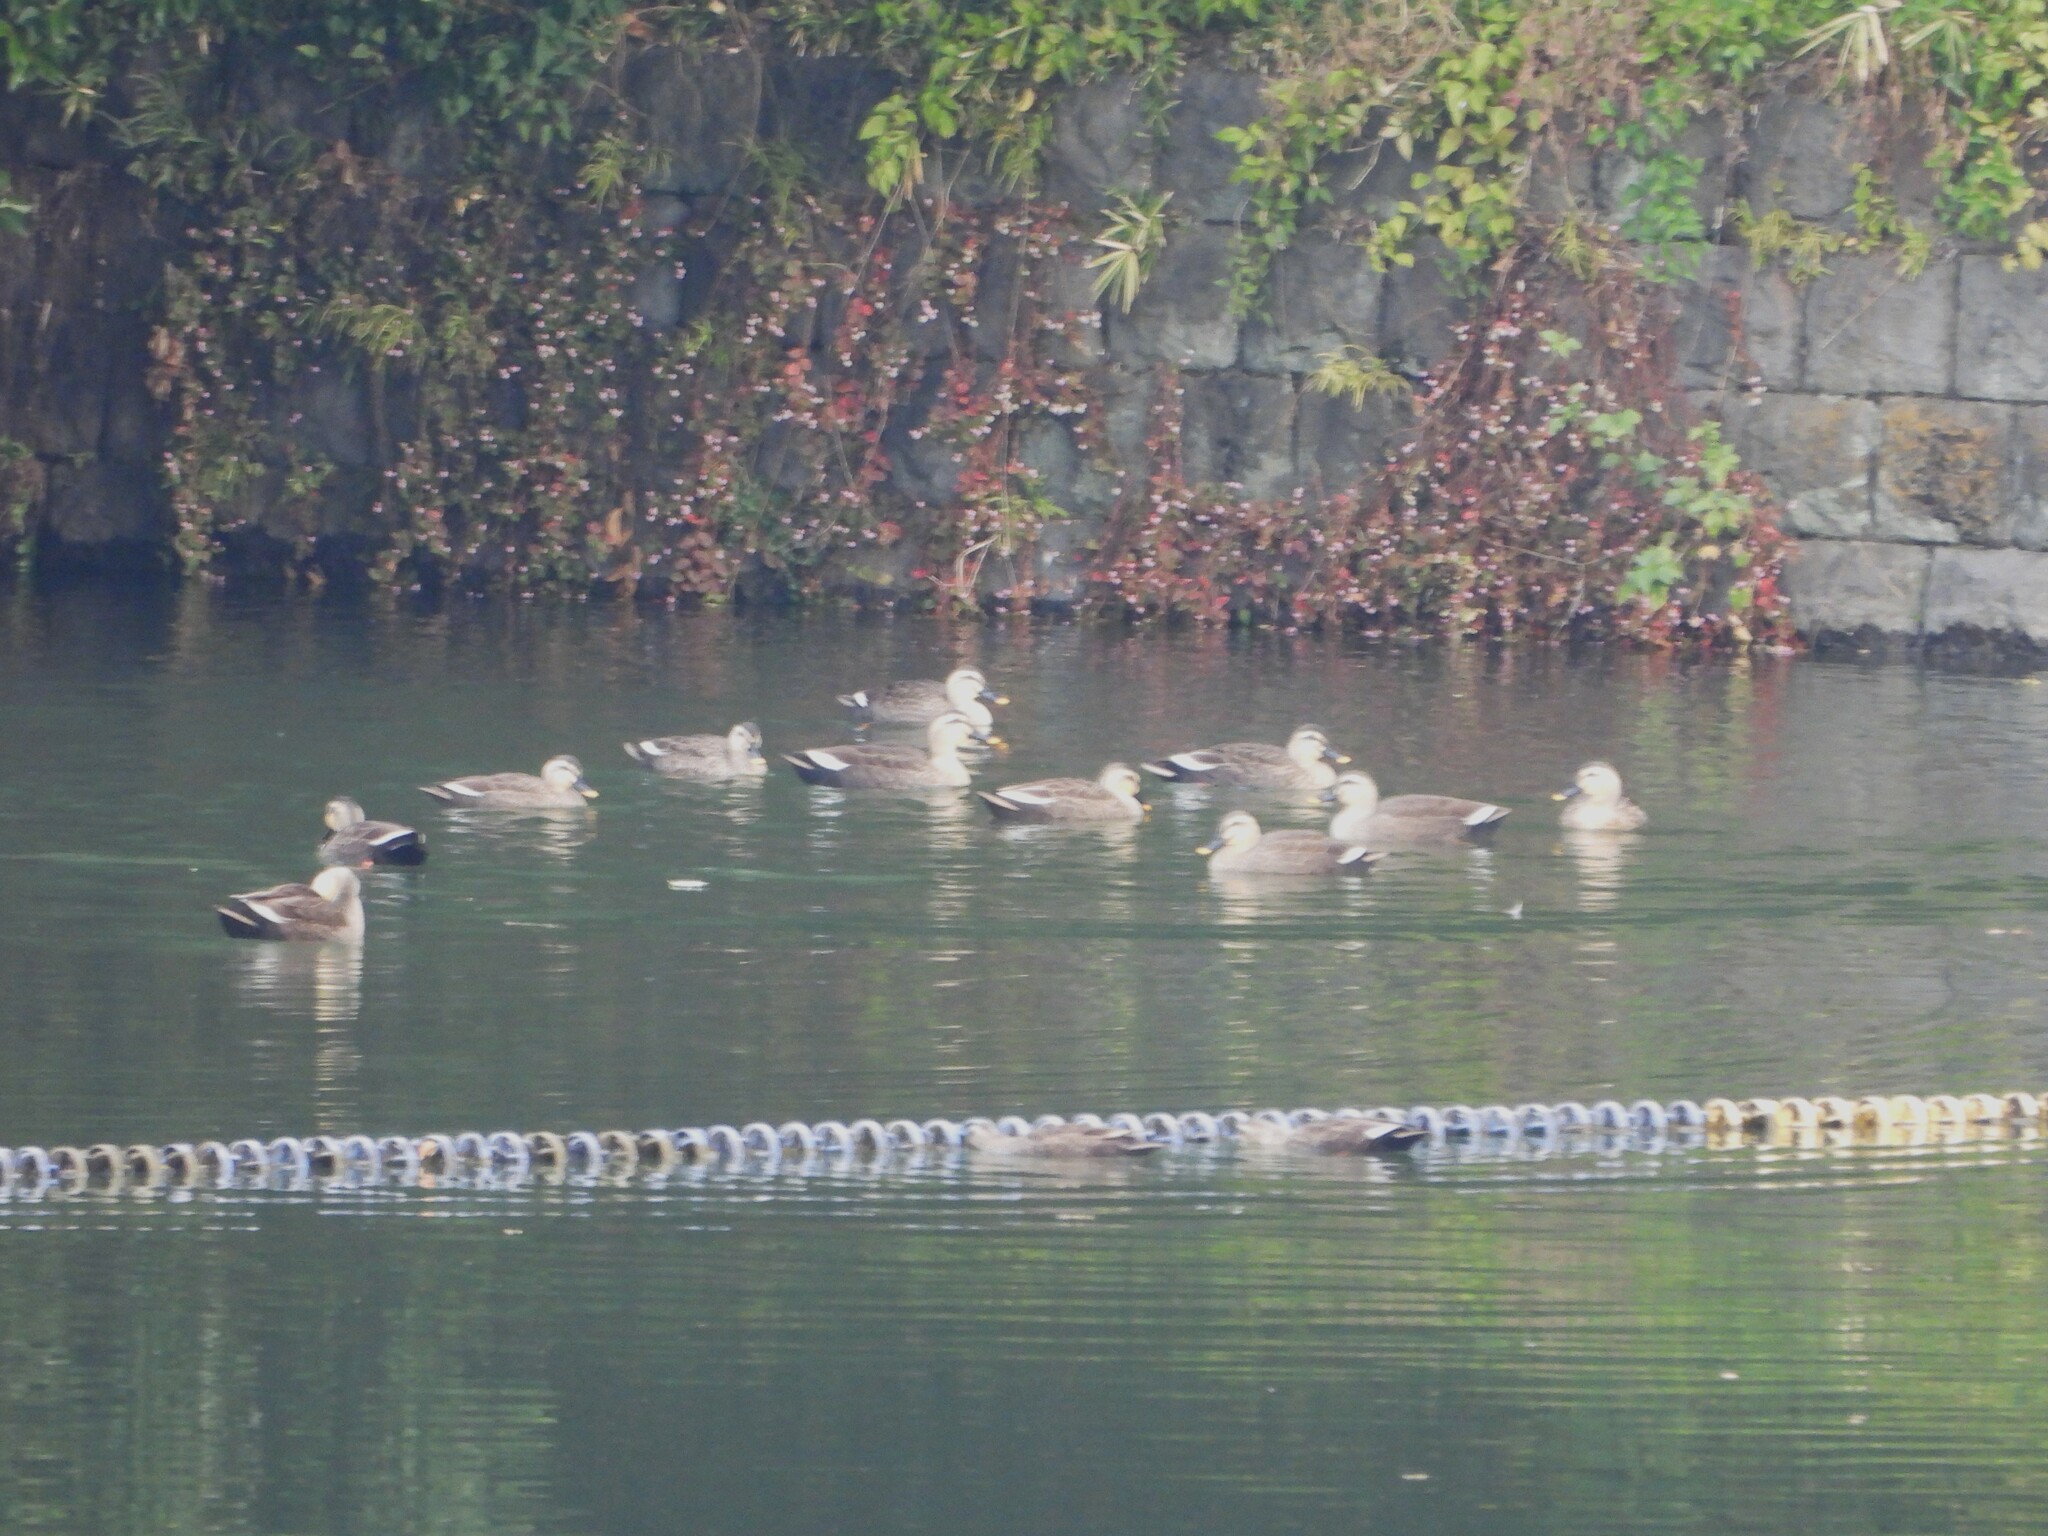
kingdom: Animalia
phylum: Chordata
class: Aves
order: Anseriformes
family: Anatidae
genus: Anas
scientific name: Anas zonorhyncha
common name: Eastern spot-billed duck
